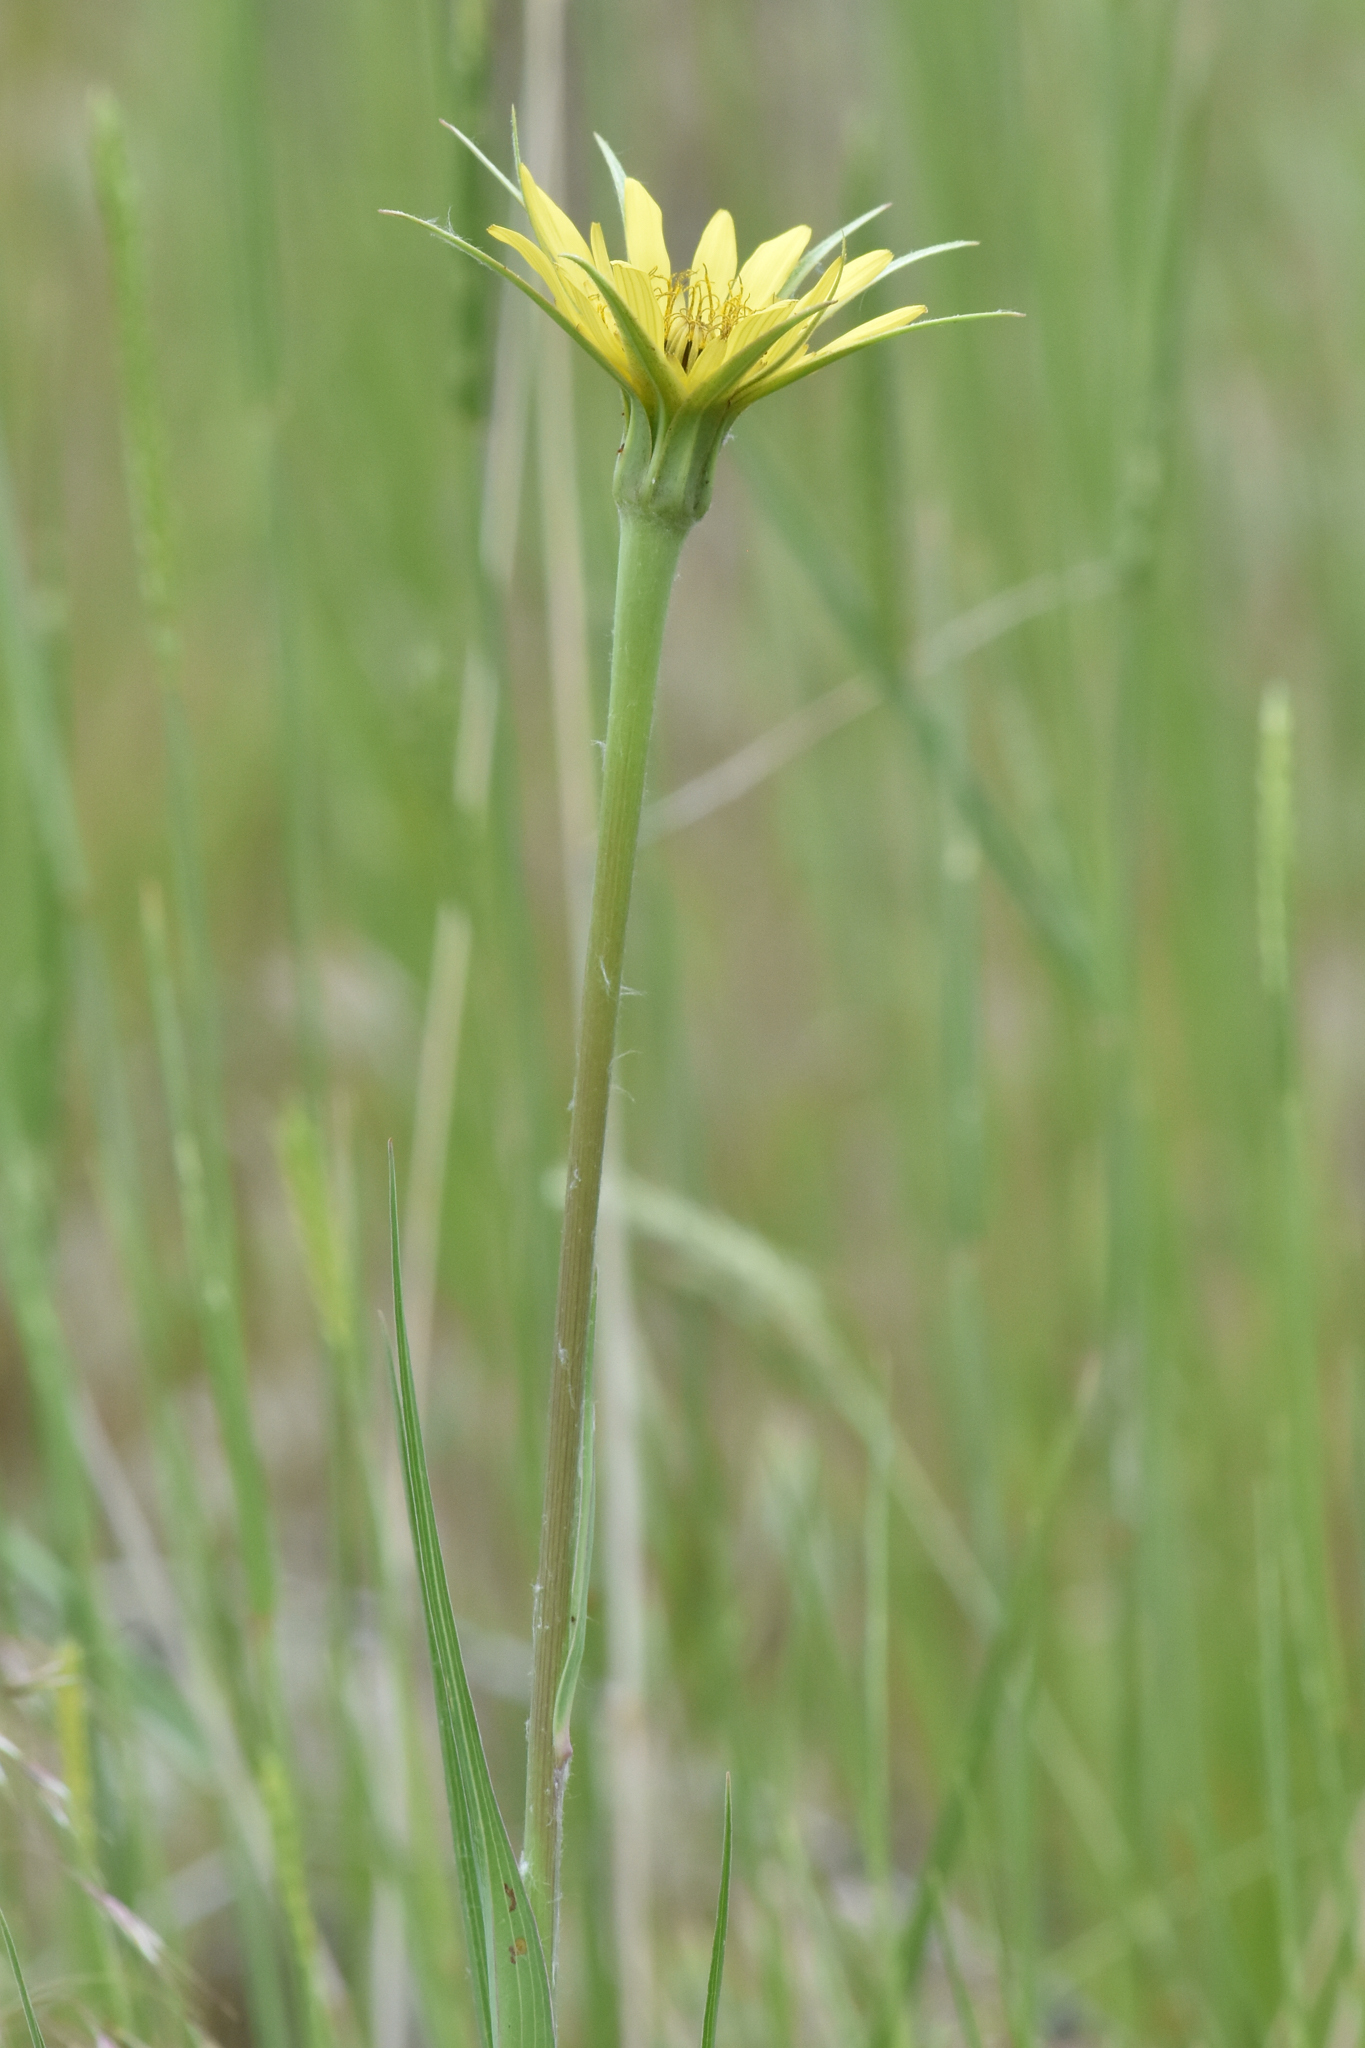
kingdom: Plantae
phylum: Tracheophyta
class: Magnoliopsida
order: Asterales
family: Asteraceae
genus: Tragopogon
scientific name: Tragopogon dubius
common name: Yellow salsify
